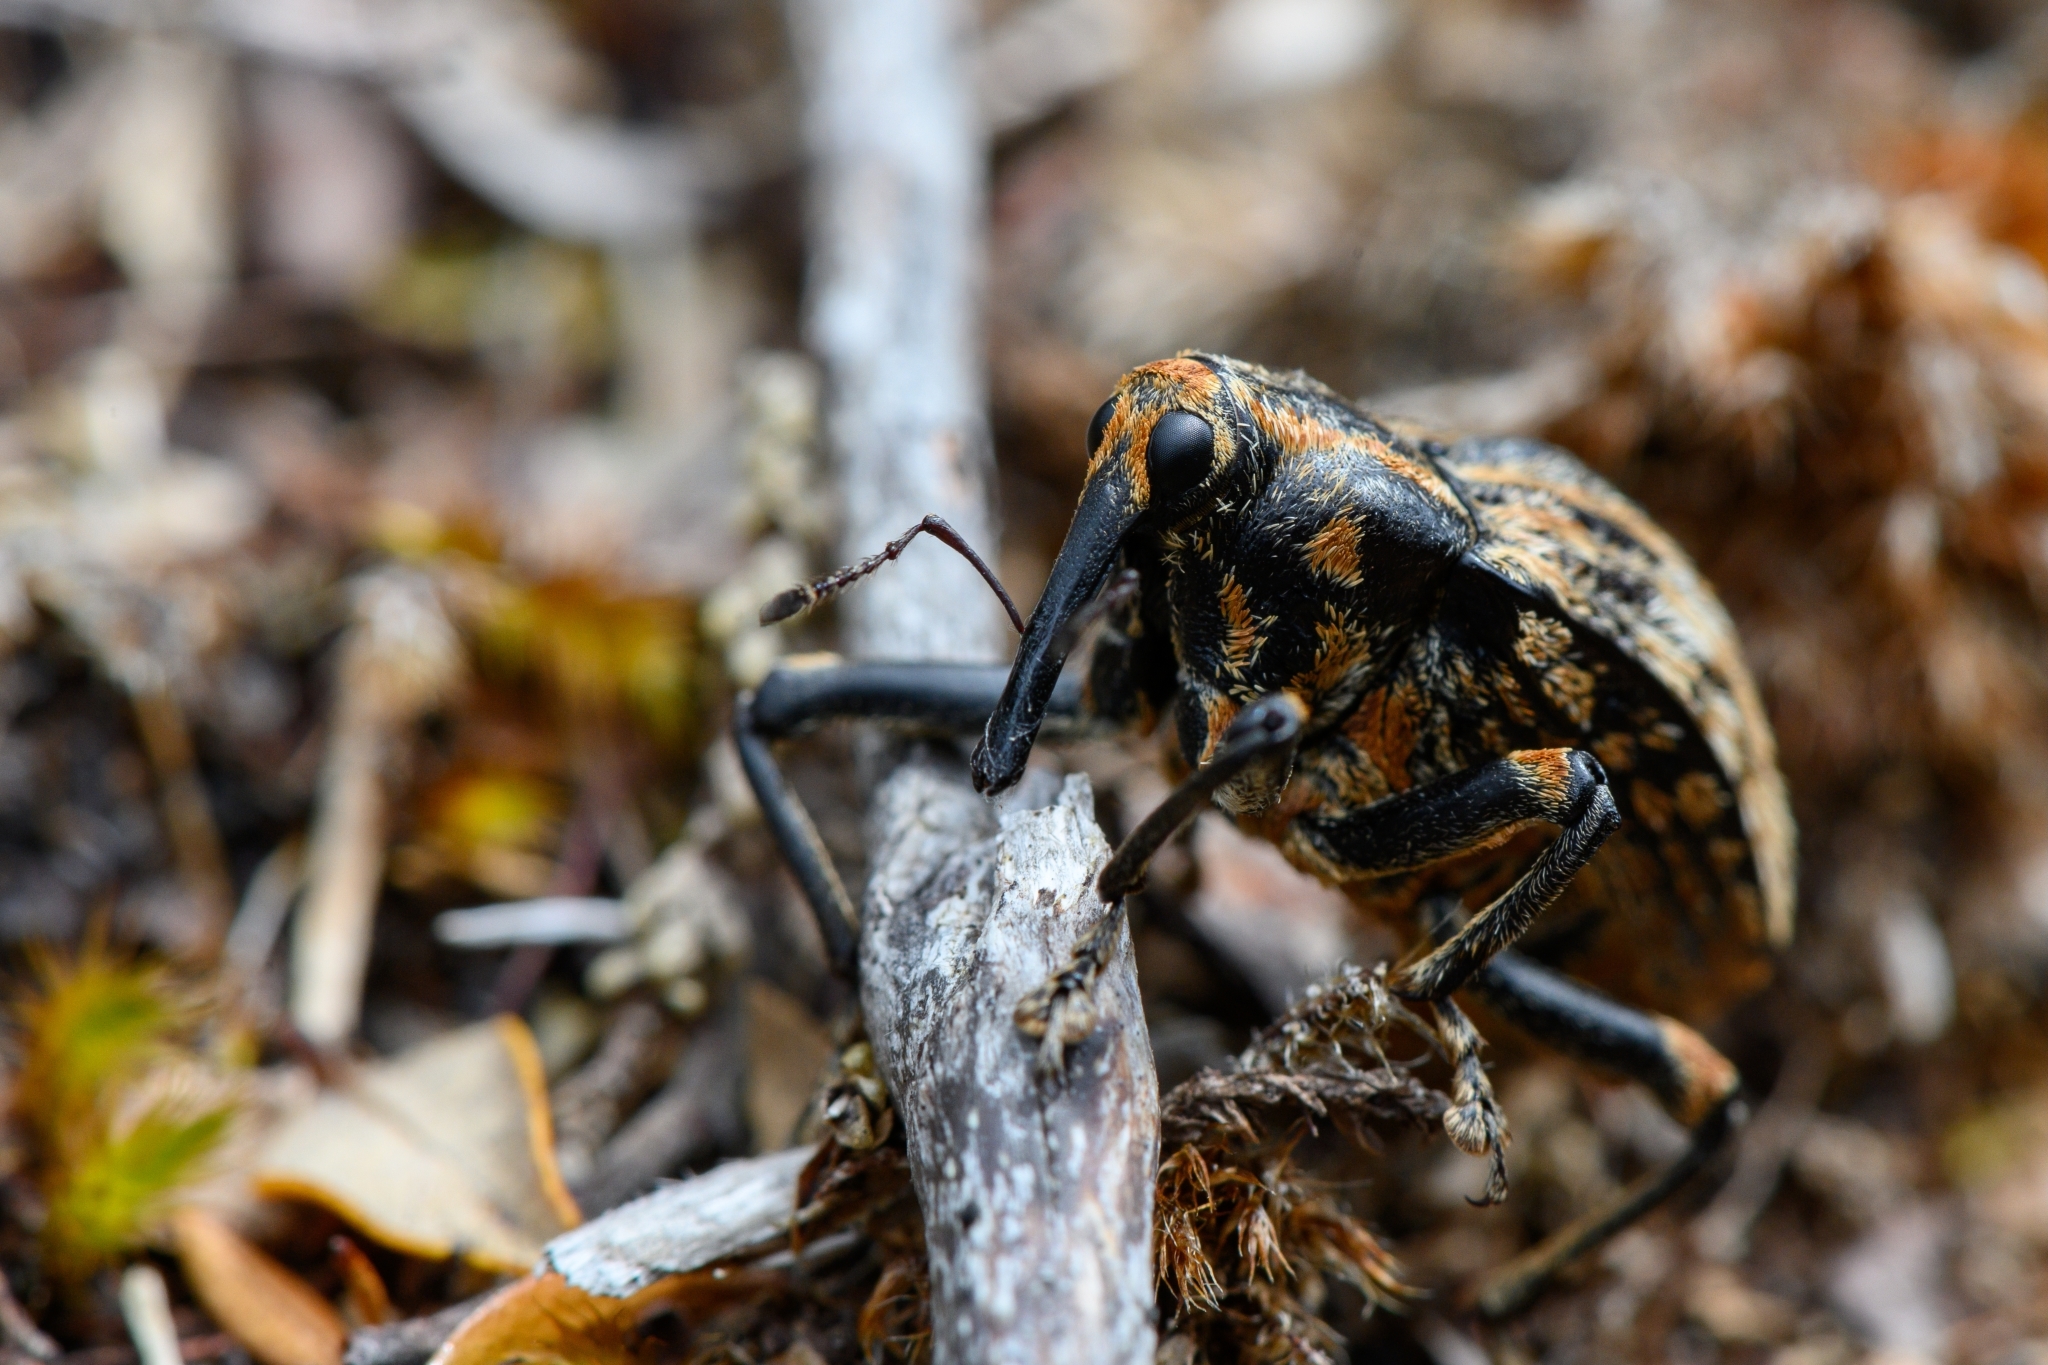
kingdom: Animalia
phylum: Arthropoda
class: Insecta
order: Coleoptera
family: Curculionidae
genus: Rhynchodes
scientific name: Rhynchodes ursus
